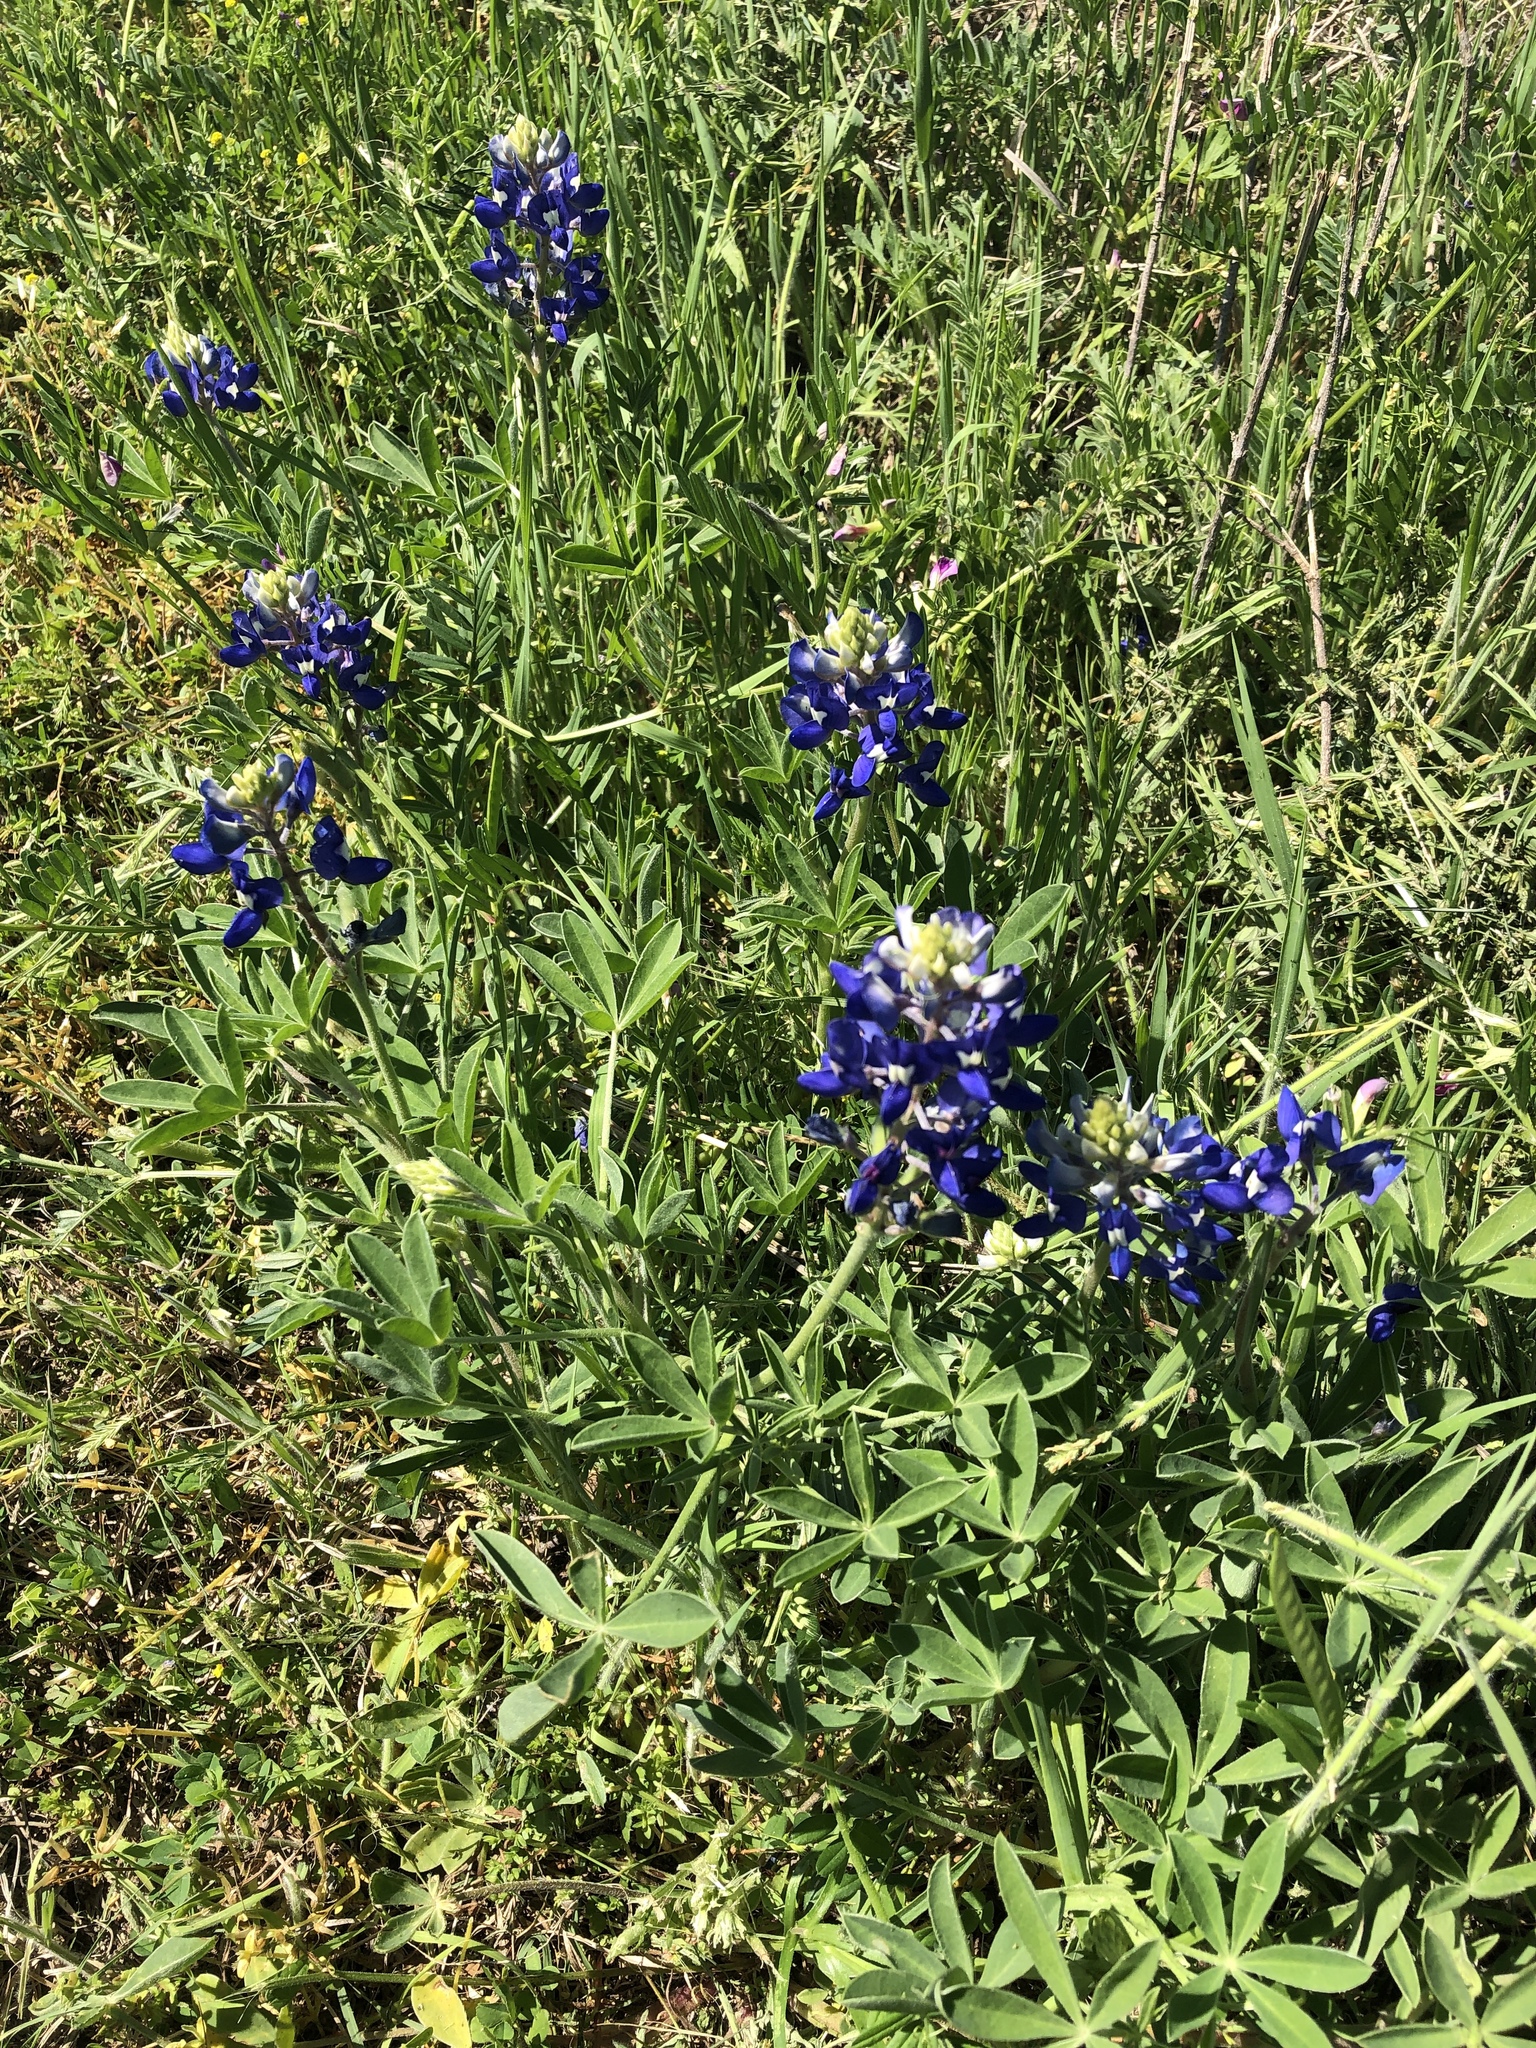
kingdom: Plantae
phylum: Tracheophyta
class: Magnoliopsida
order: Fabales
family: Fabaceae
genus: Lupinus
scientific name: Lupinus texensis
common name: Texas bluebonnet
